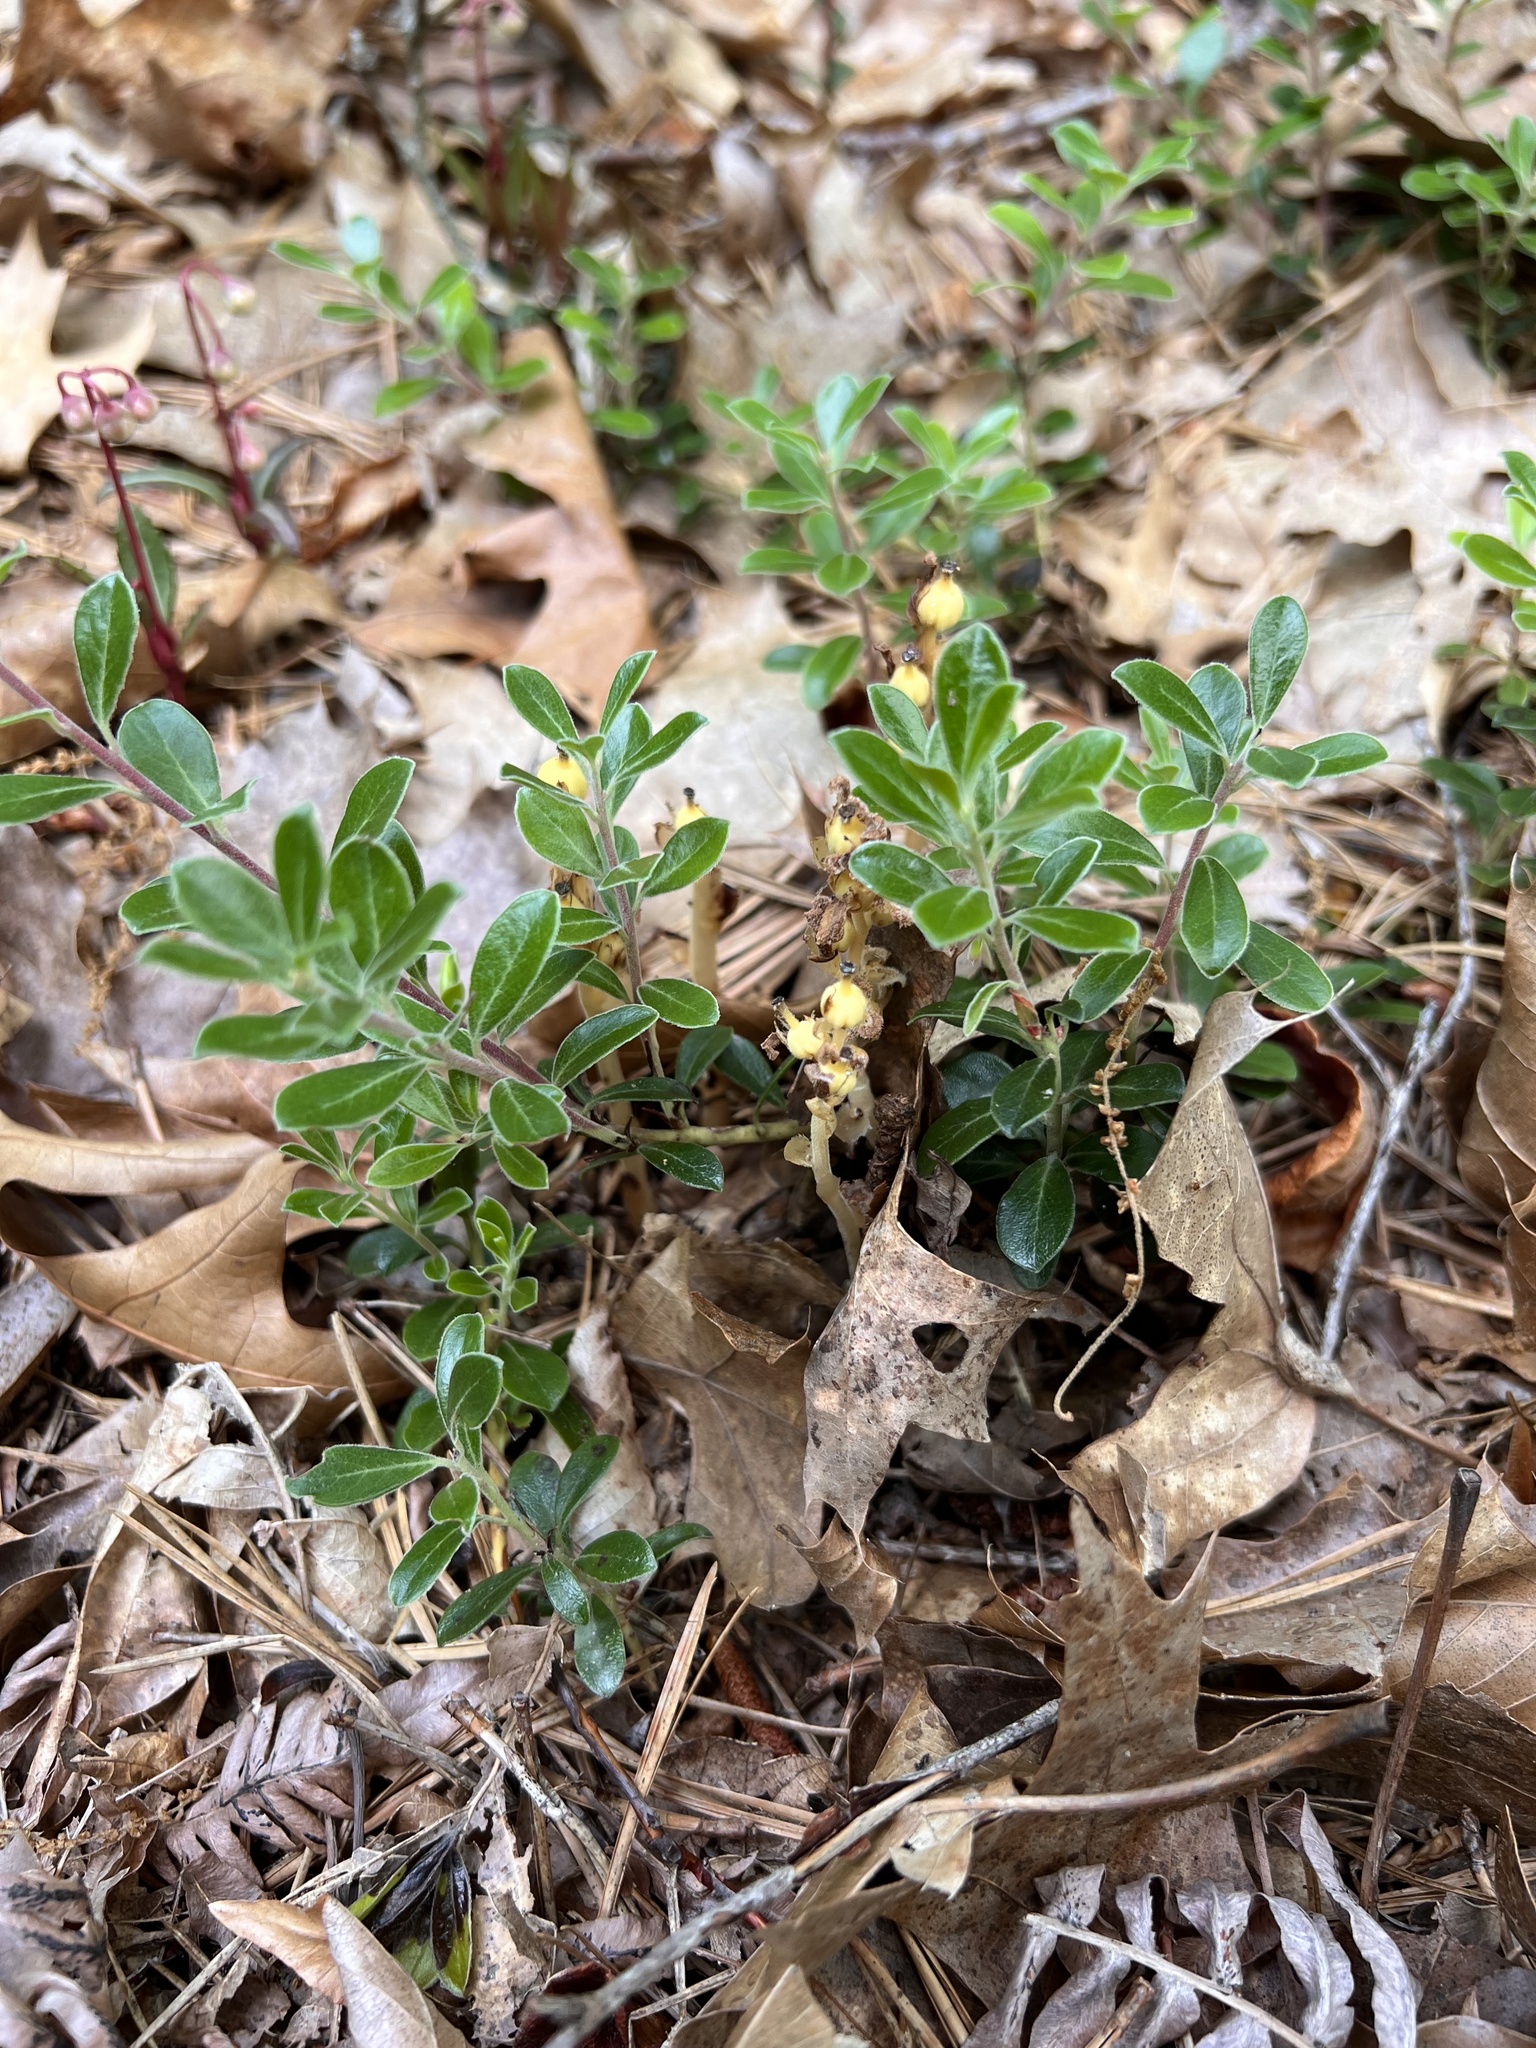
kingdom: Plantae
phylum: Tracheophyta
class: Magnoliopsida
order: Ericales
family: Ericaceae
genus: Hypopitys
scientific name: Hypopitys monotropa
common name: Yellow bird's-nest
